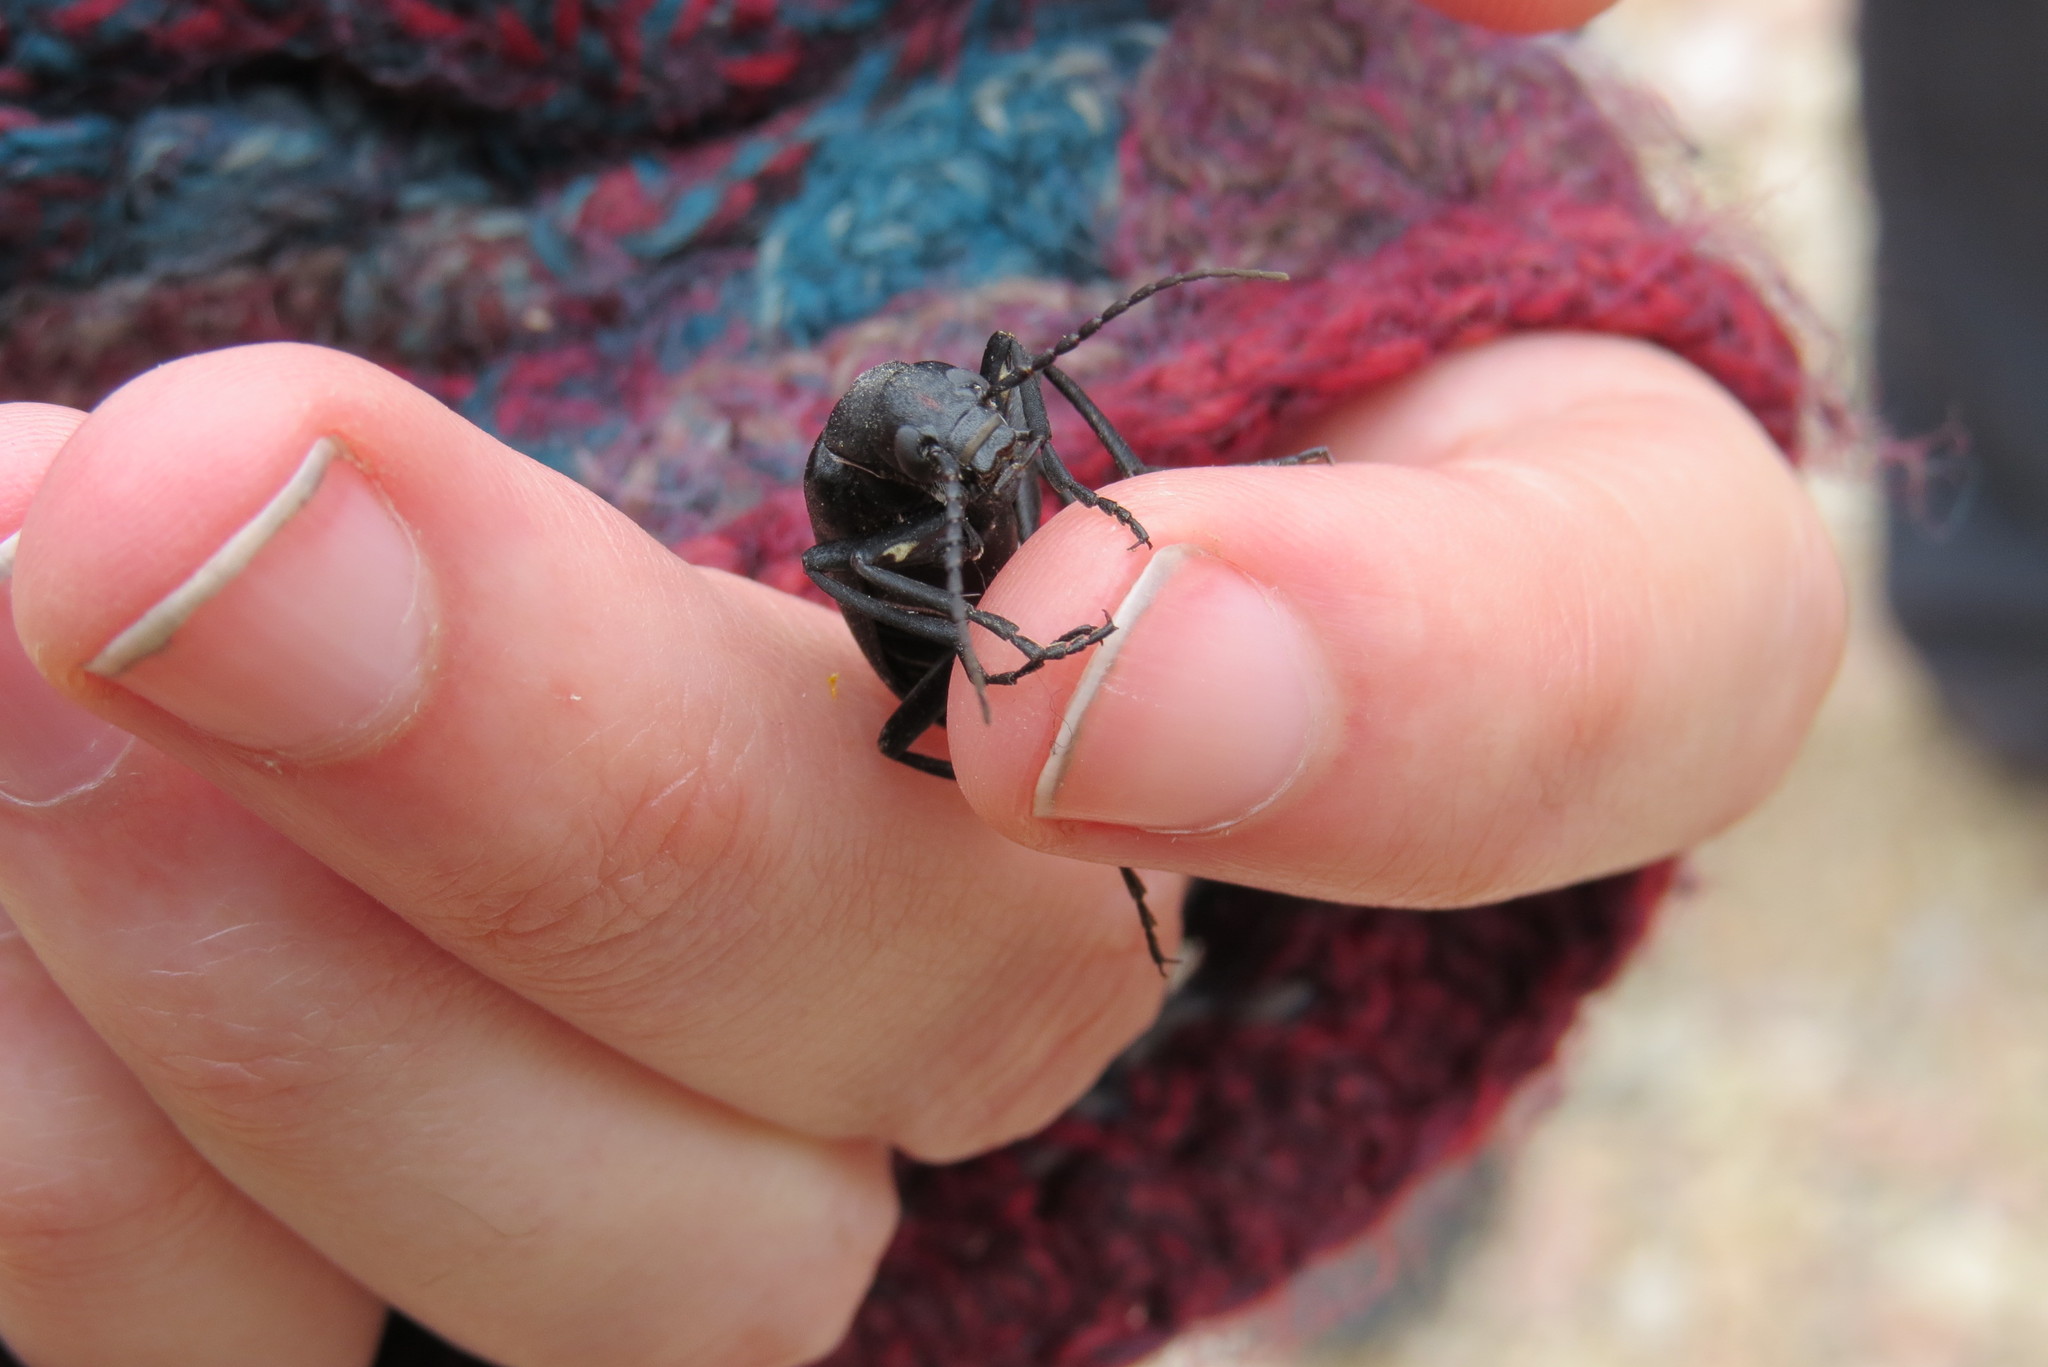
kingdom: Animalia
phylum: Arthropoda
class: Insecta
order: Coleoptera
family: Meloidae
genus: Epicauta
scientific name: Epicauta segmenta
